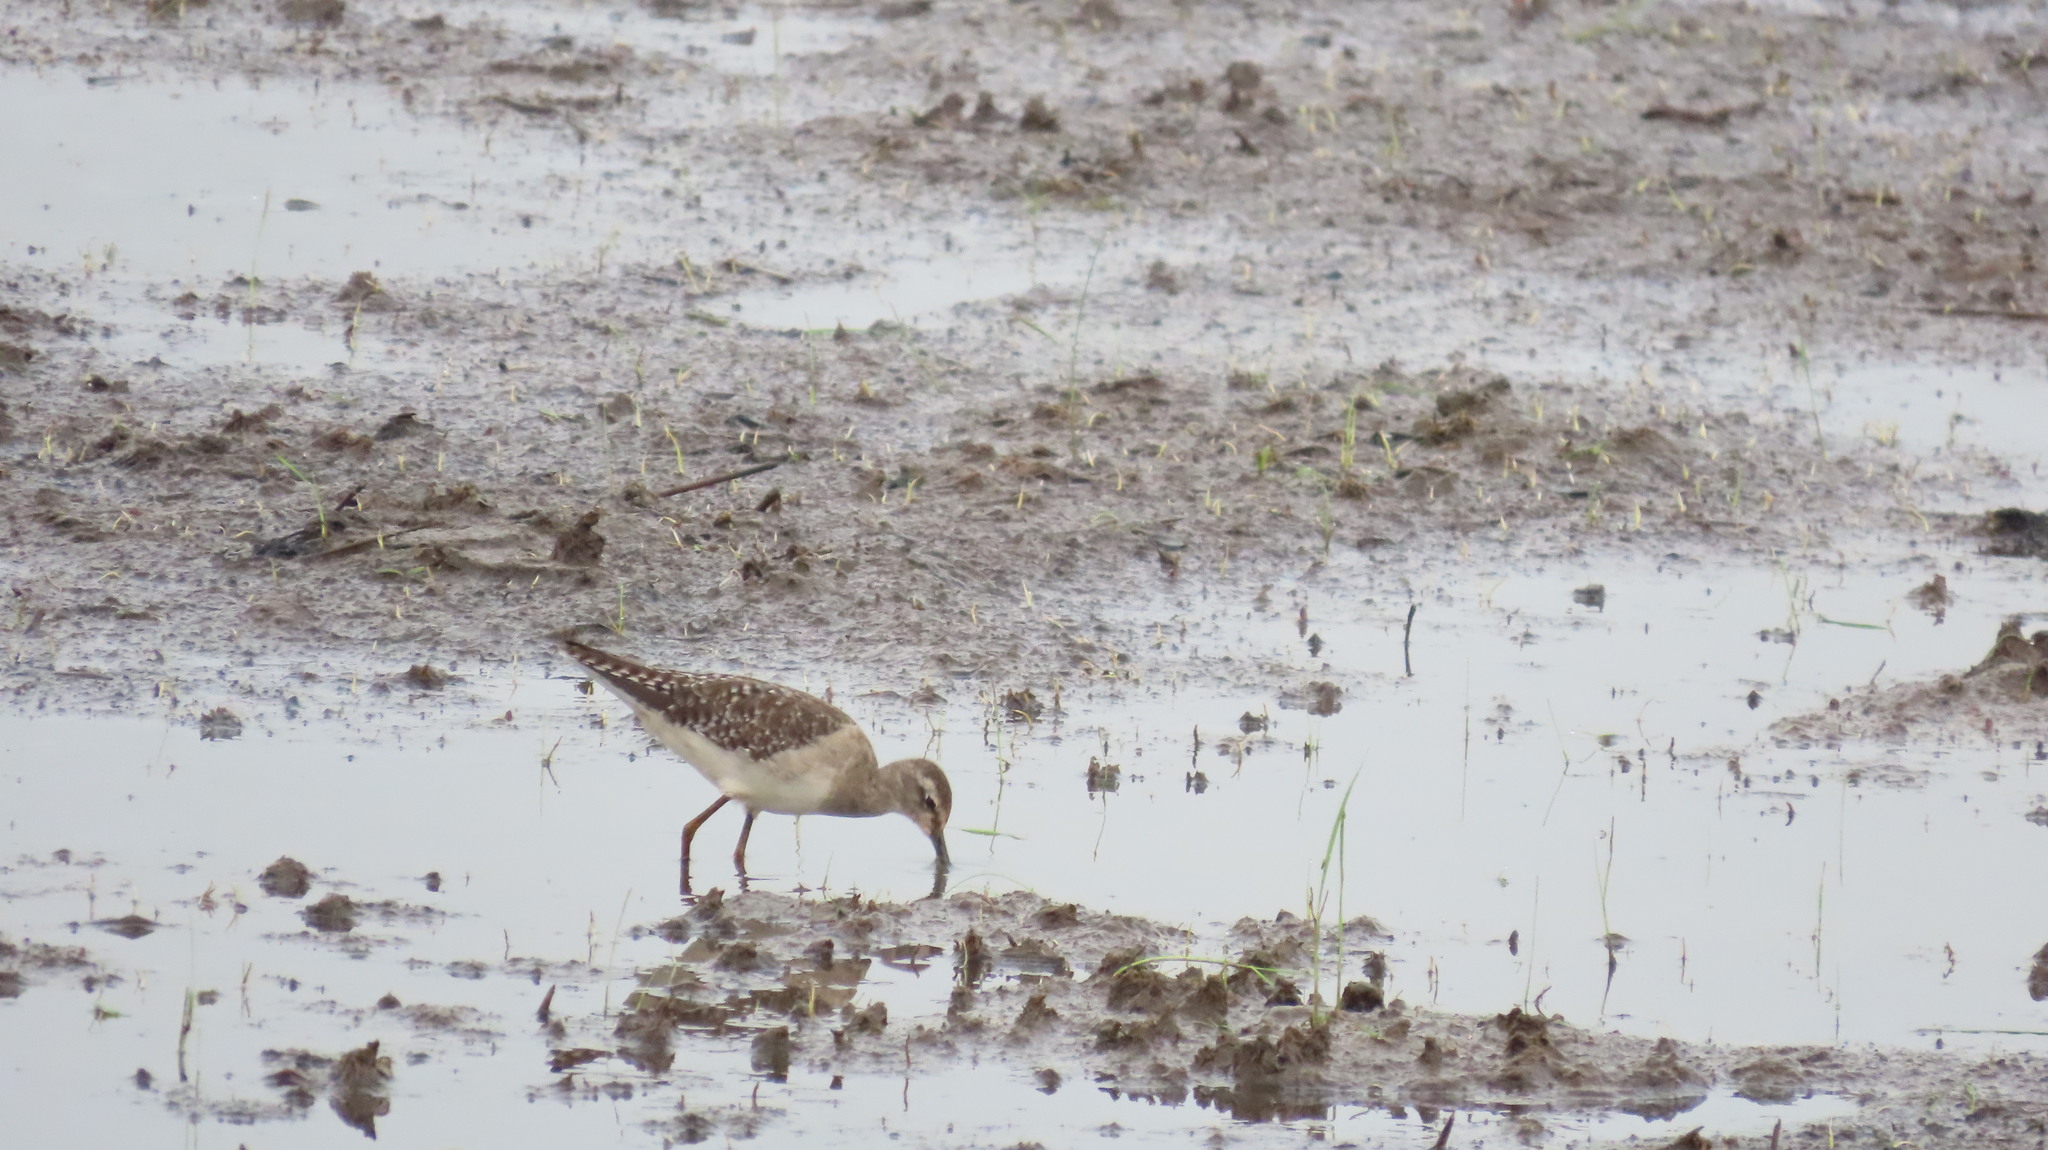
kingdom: Animalia
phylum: Chordata
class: Aves
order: Charadriiformes
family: Scolopacidae
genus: Tringa
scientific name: Tringa glareola
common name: Wood sandpiper
